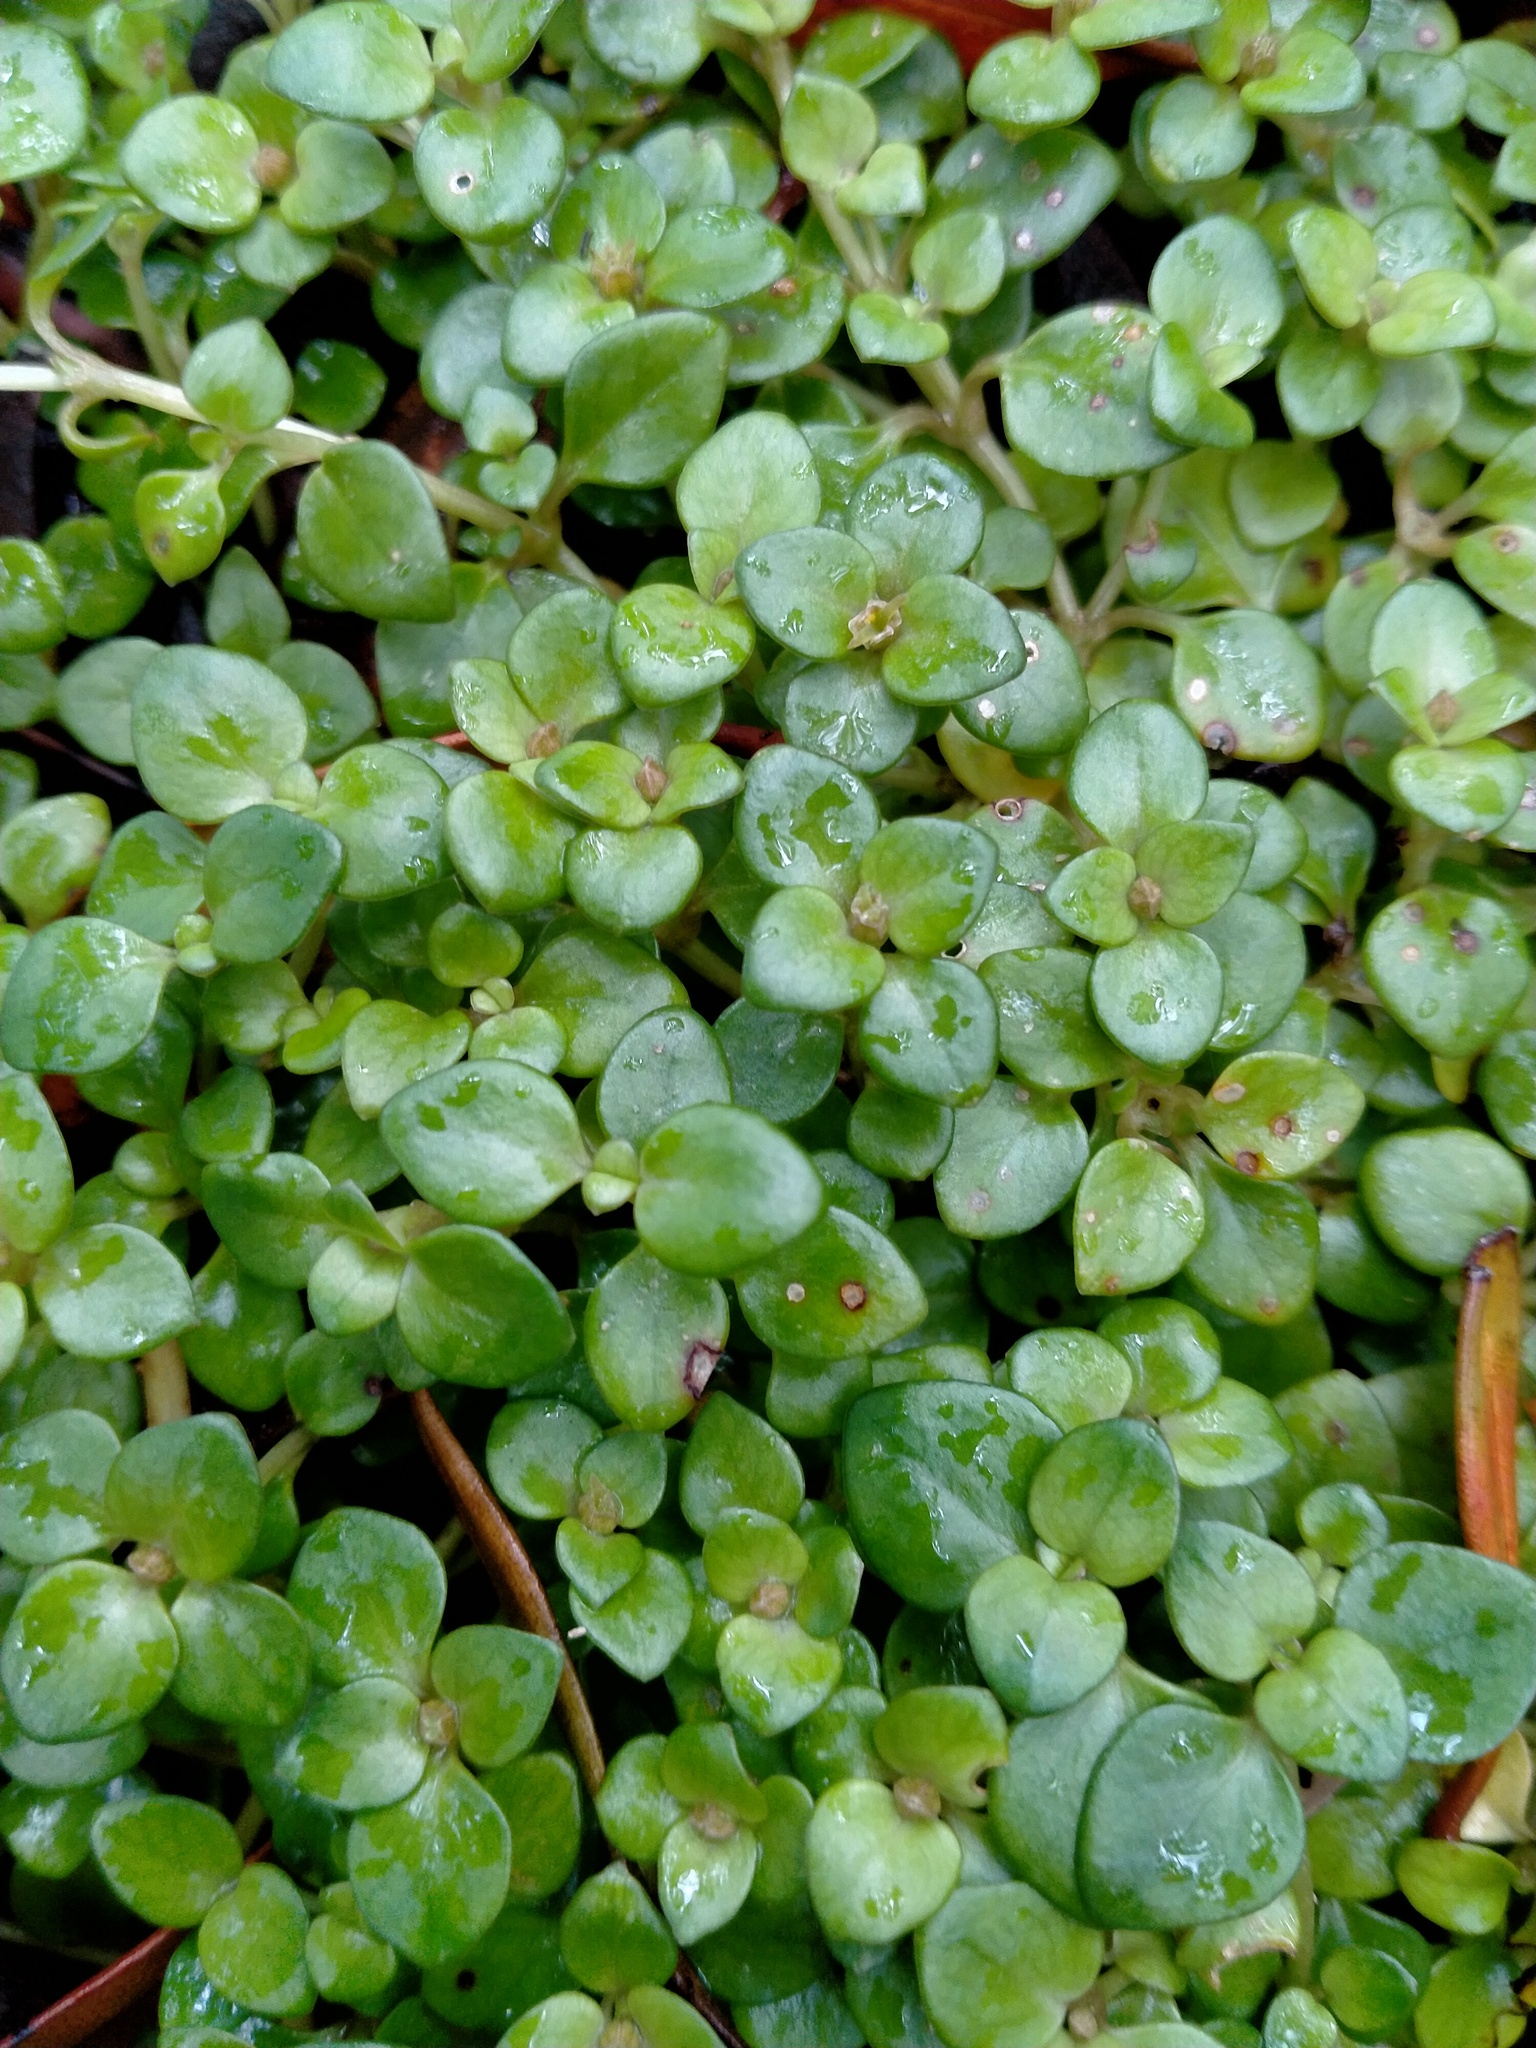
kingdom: Plantae
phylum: Tracheophyta
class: Magnoliopsida
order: Gentianales
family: Rubiaceae
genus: Nertera
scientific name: Nertera granadensis
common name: Beadplant
